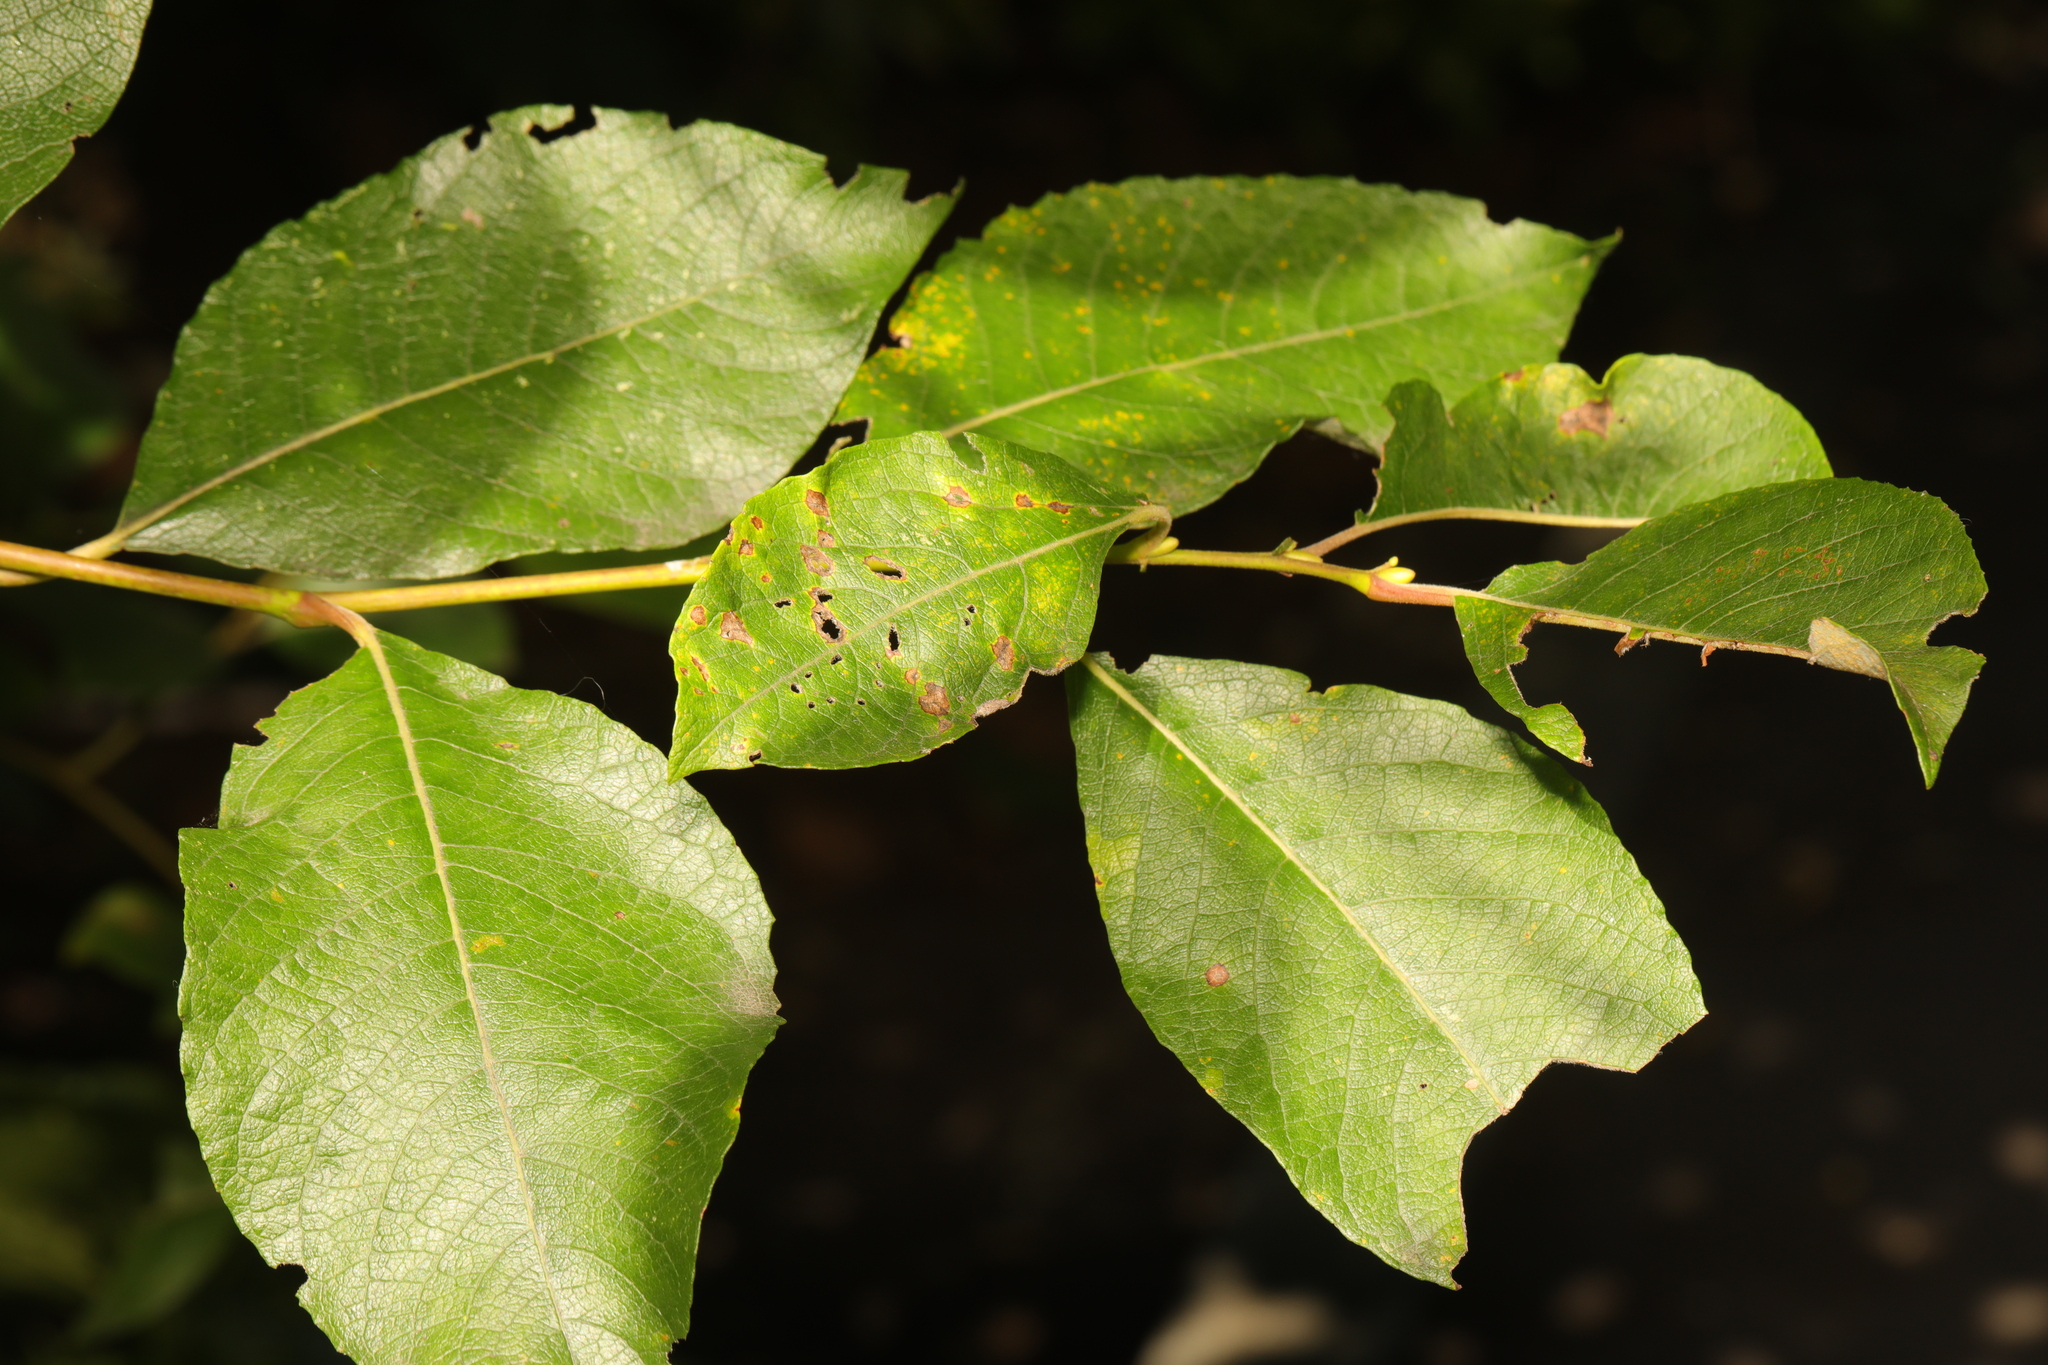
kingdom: Plantae
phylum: Tracheophyta
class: Magnoliopsida
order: Malpighiales
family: Salicaceae
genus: Salix
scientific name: Salix caprea
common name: Goat willow
